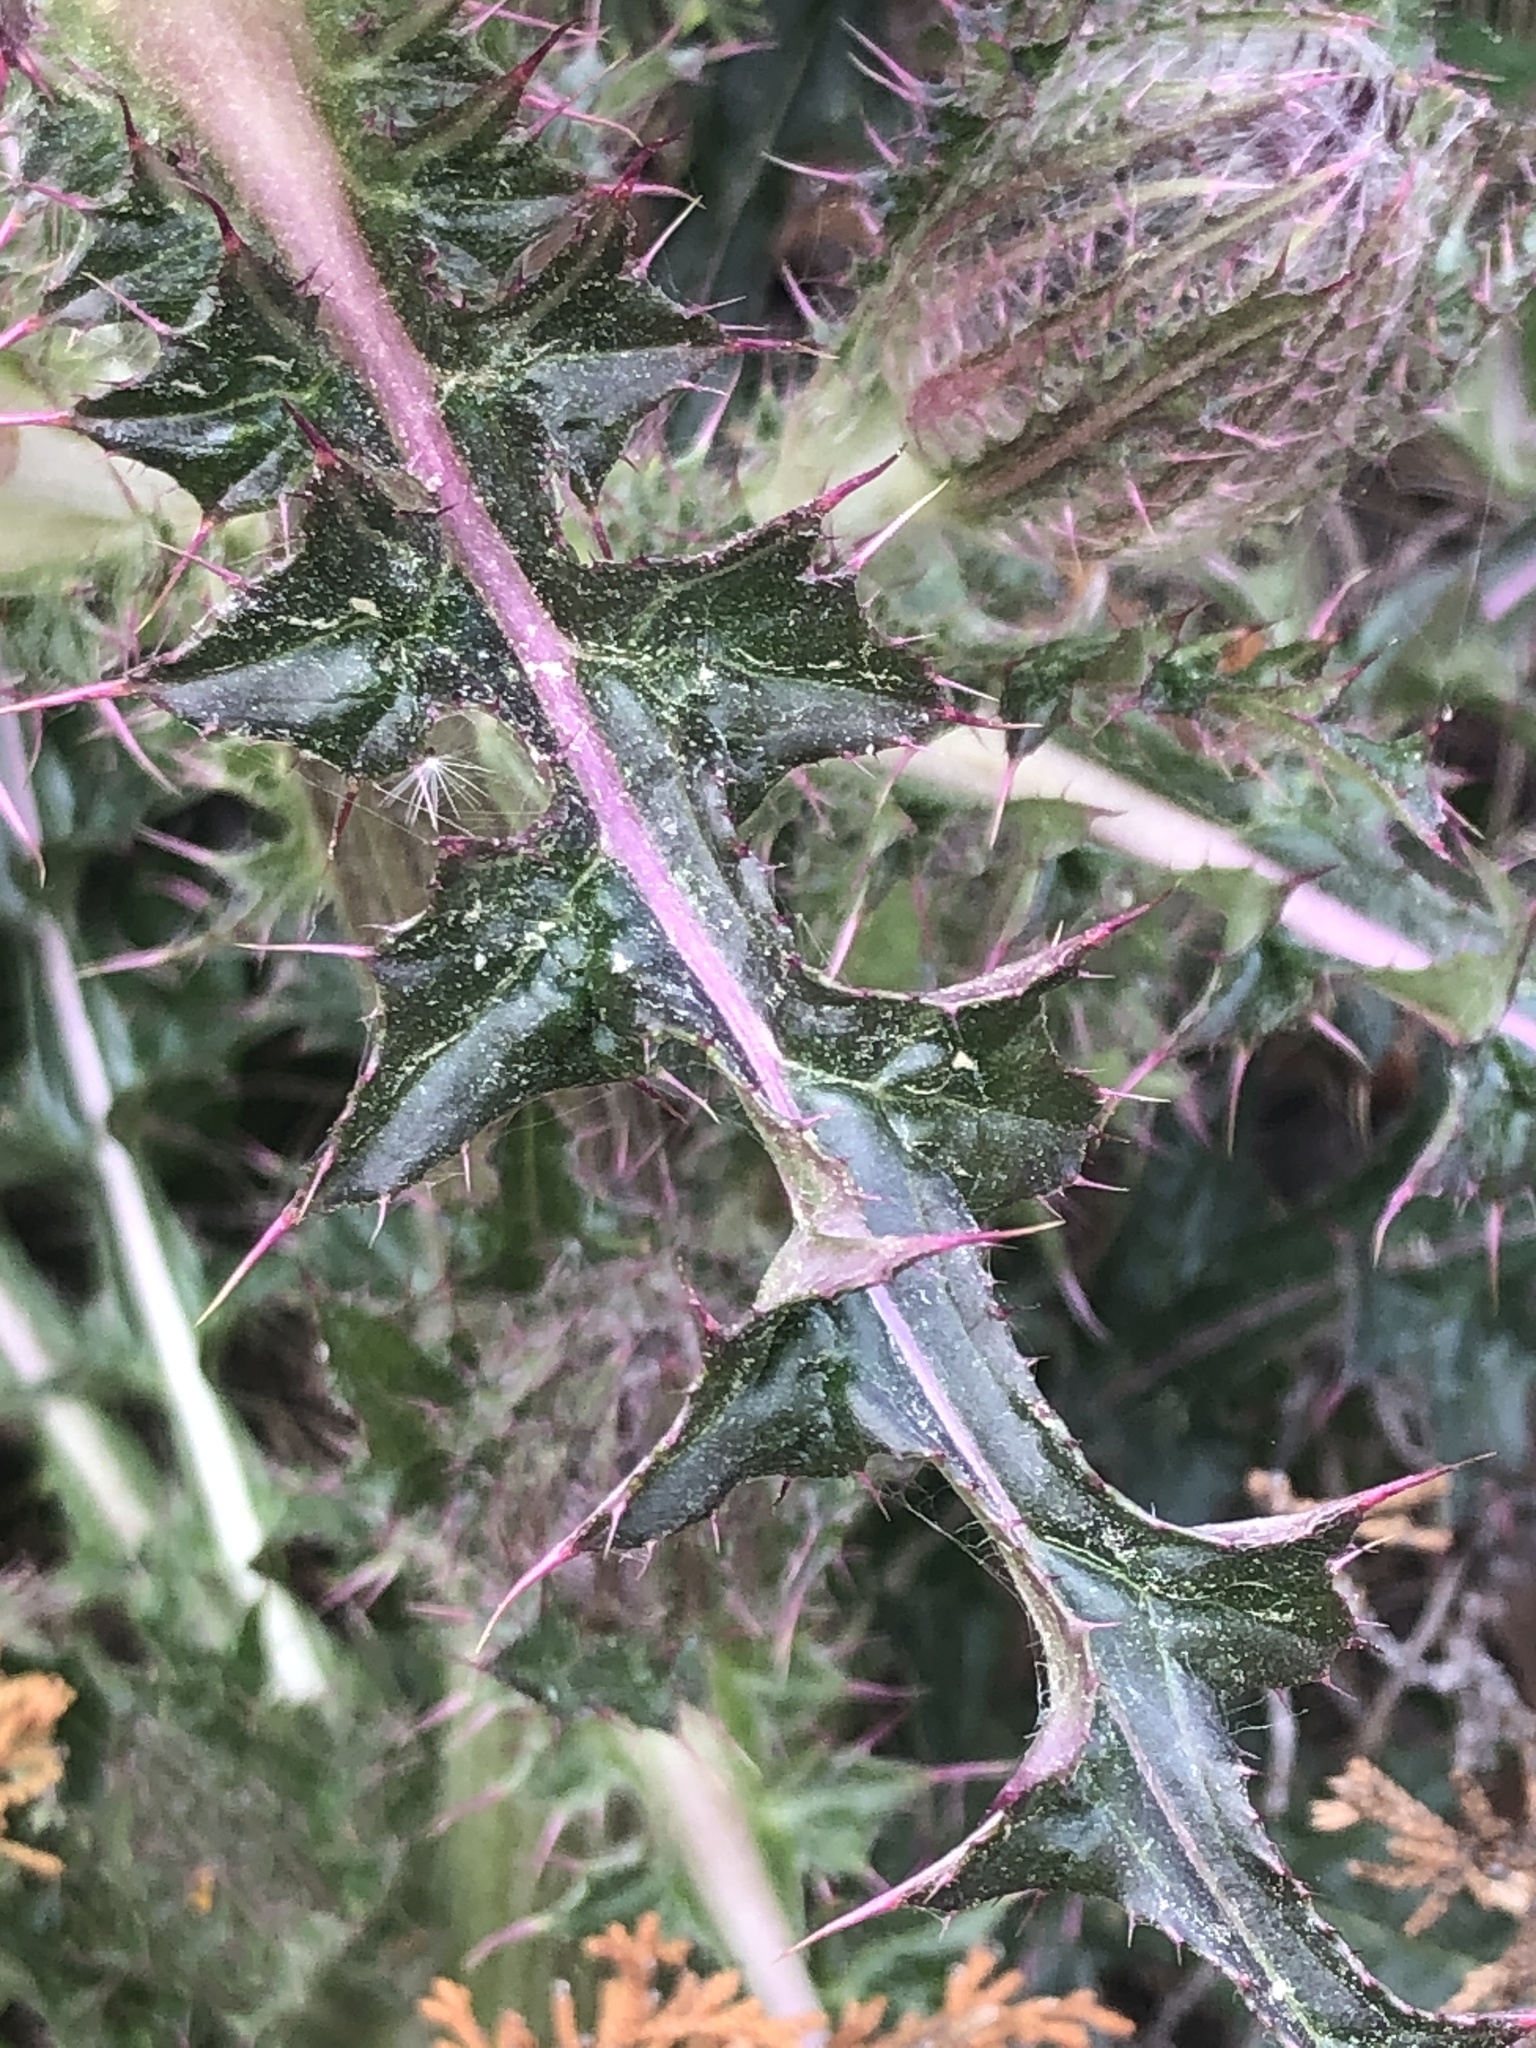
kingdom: Plantae
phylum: Tracheophyta
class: Magnoliopsida
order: Asterales
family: Asteraceae
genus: Cirsium
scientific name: Cirsium horridulum
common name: Bristly thistle
